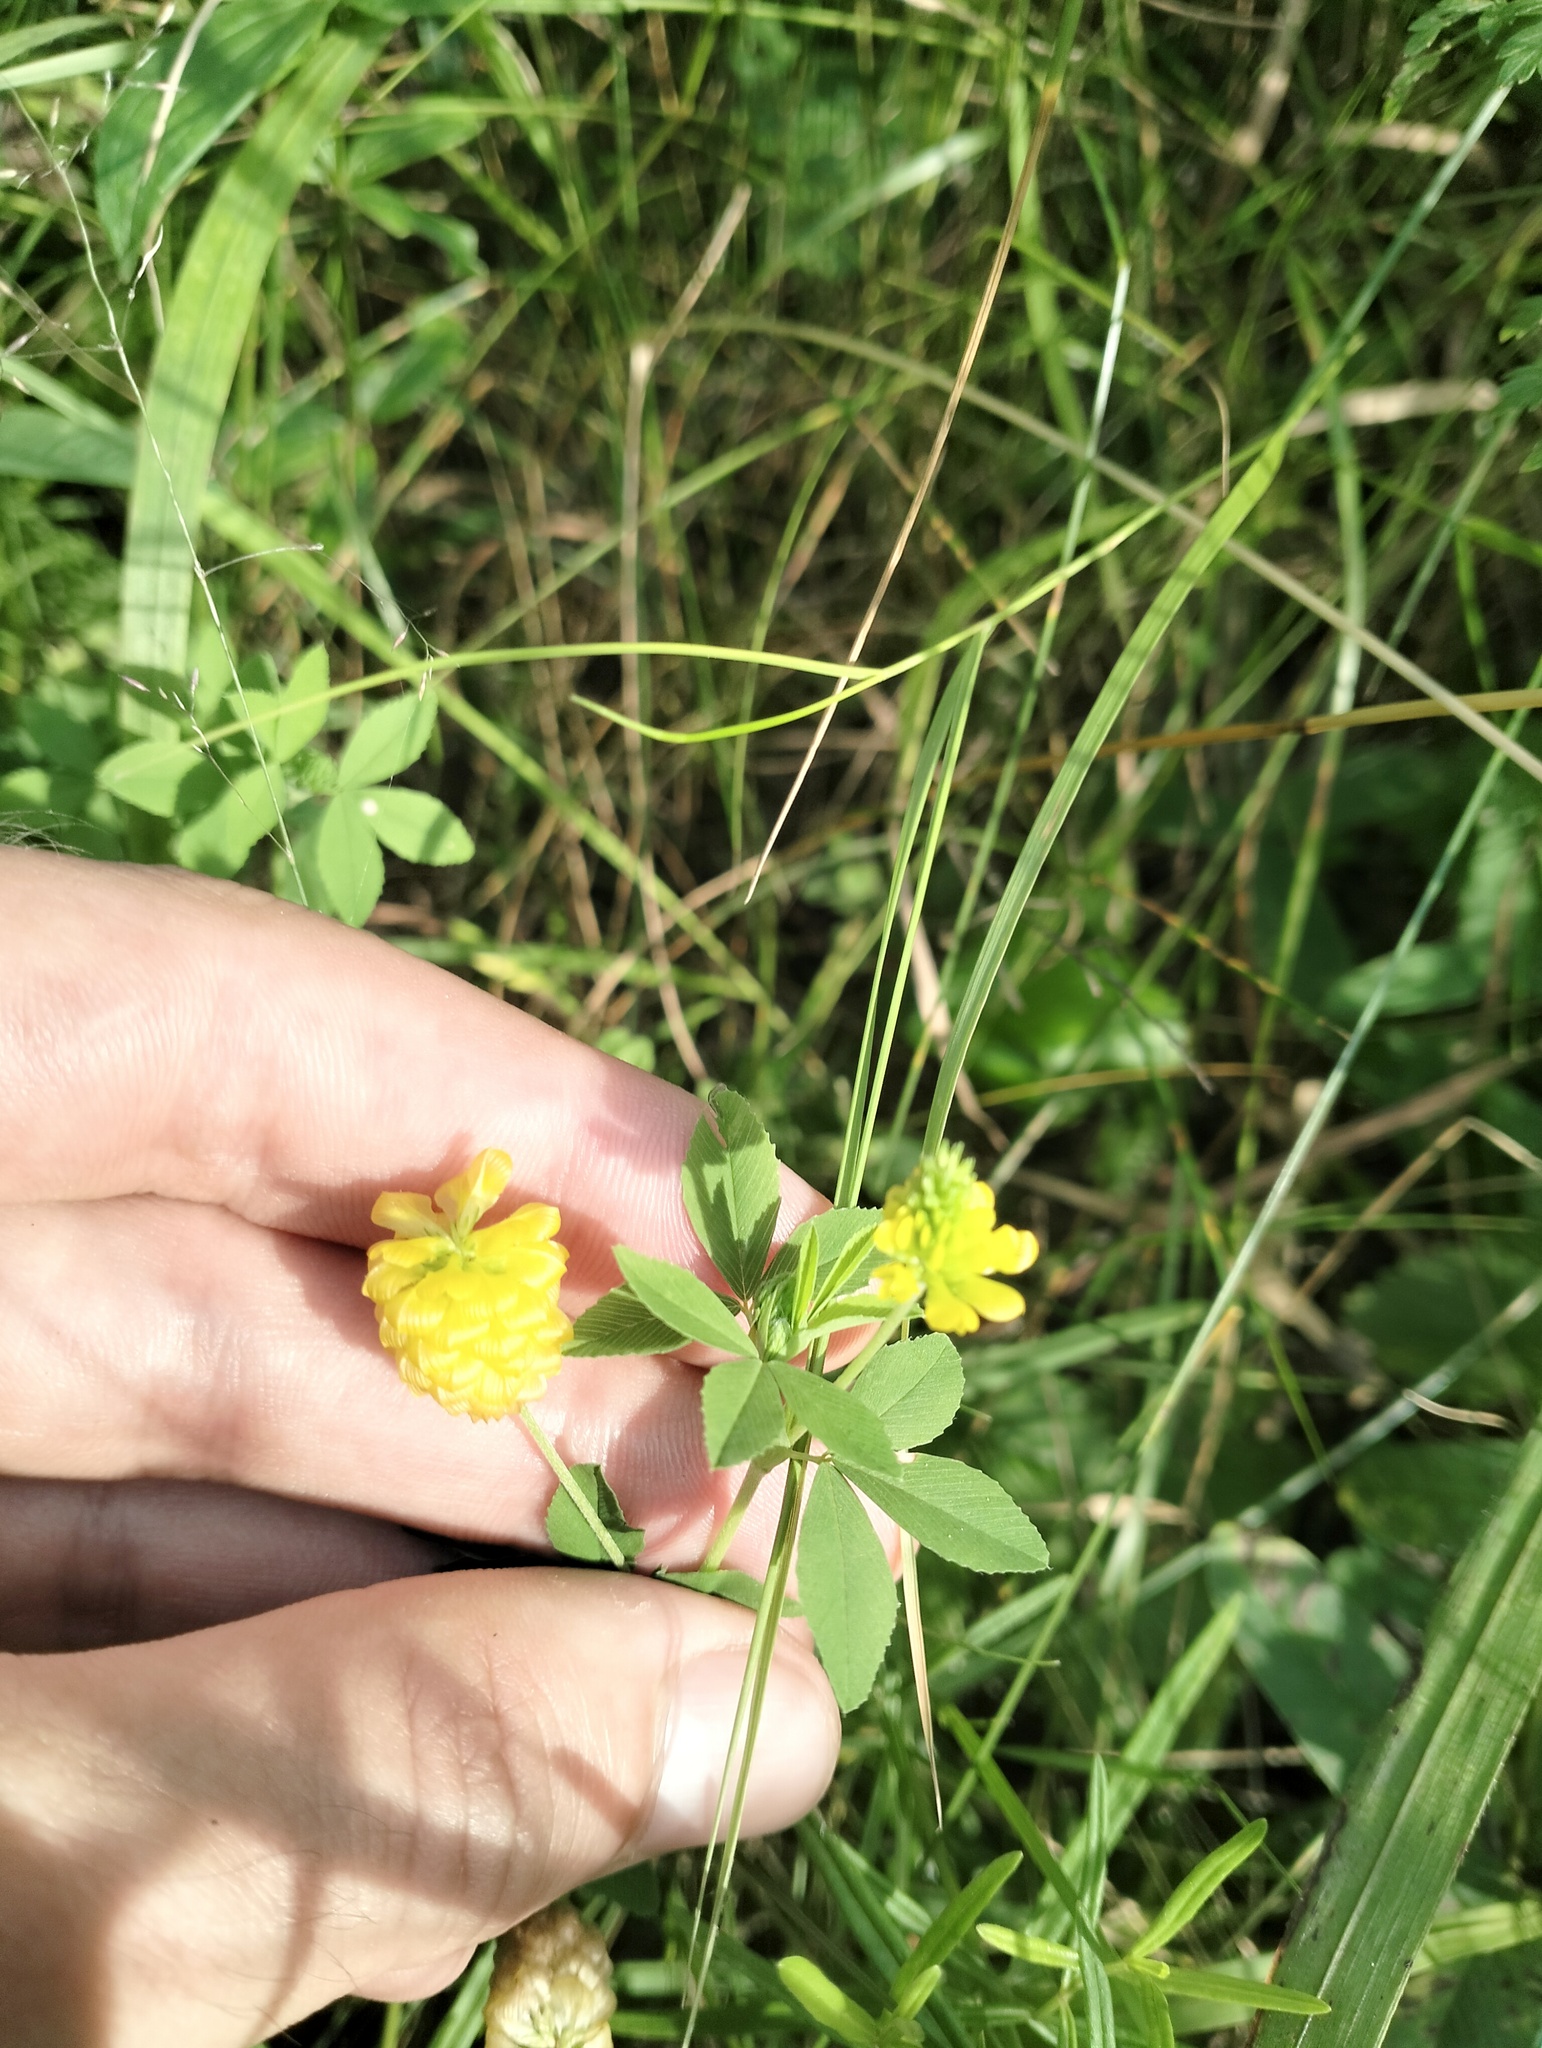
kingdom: Plantae
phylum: Tracheophyta
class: Magnoliopsida
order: Fabales
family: Fabaceae
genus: Trifolium
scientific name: Trifolium aureum
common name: Golden clover
